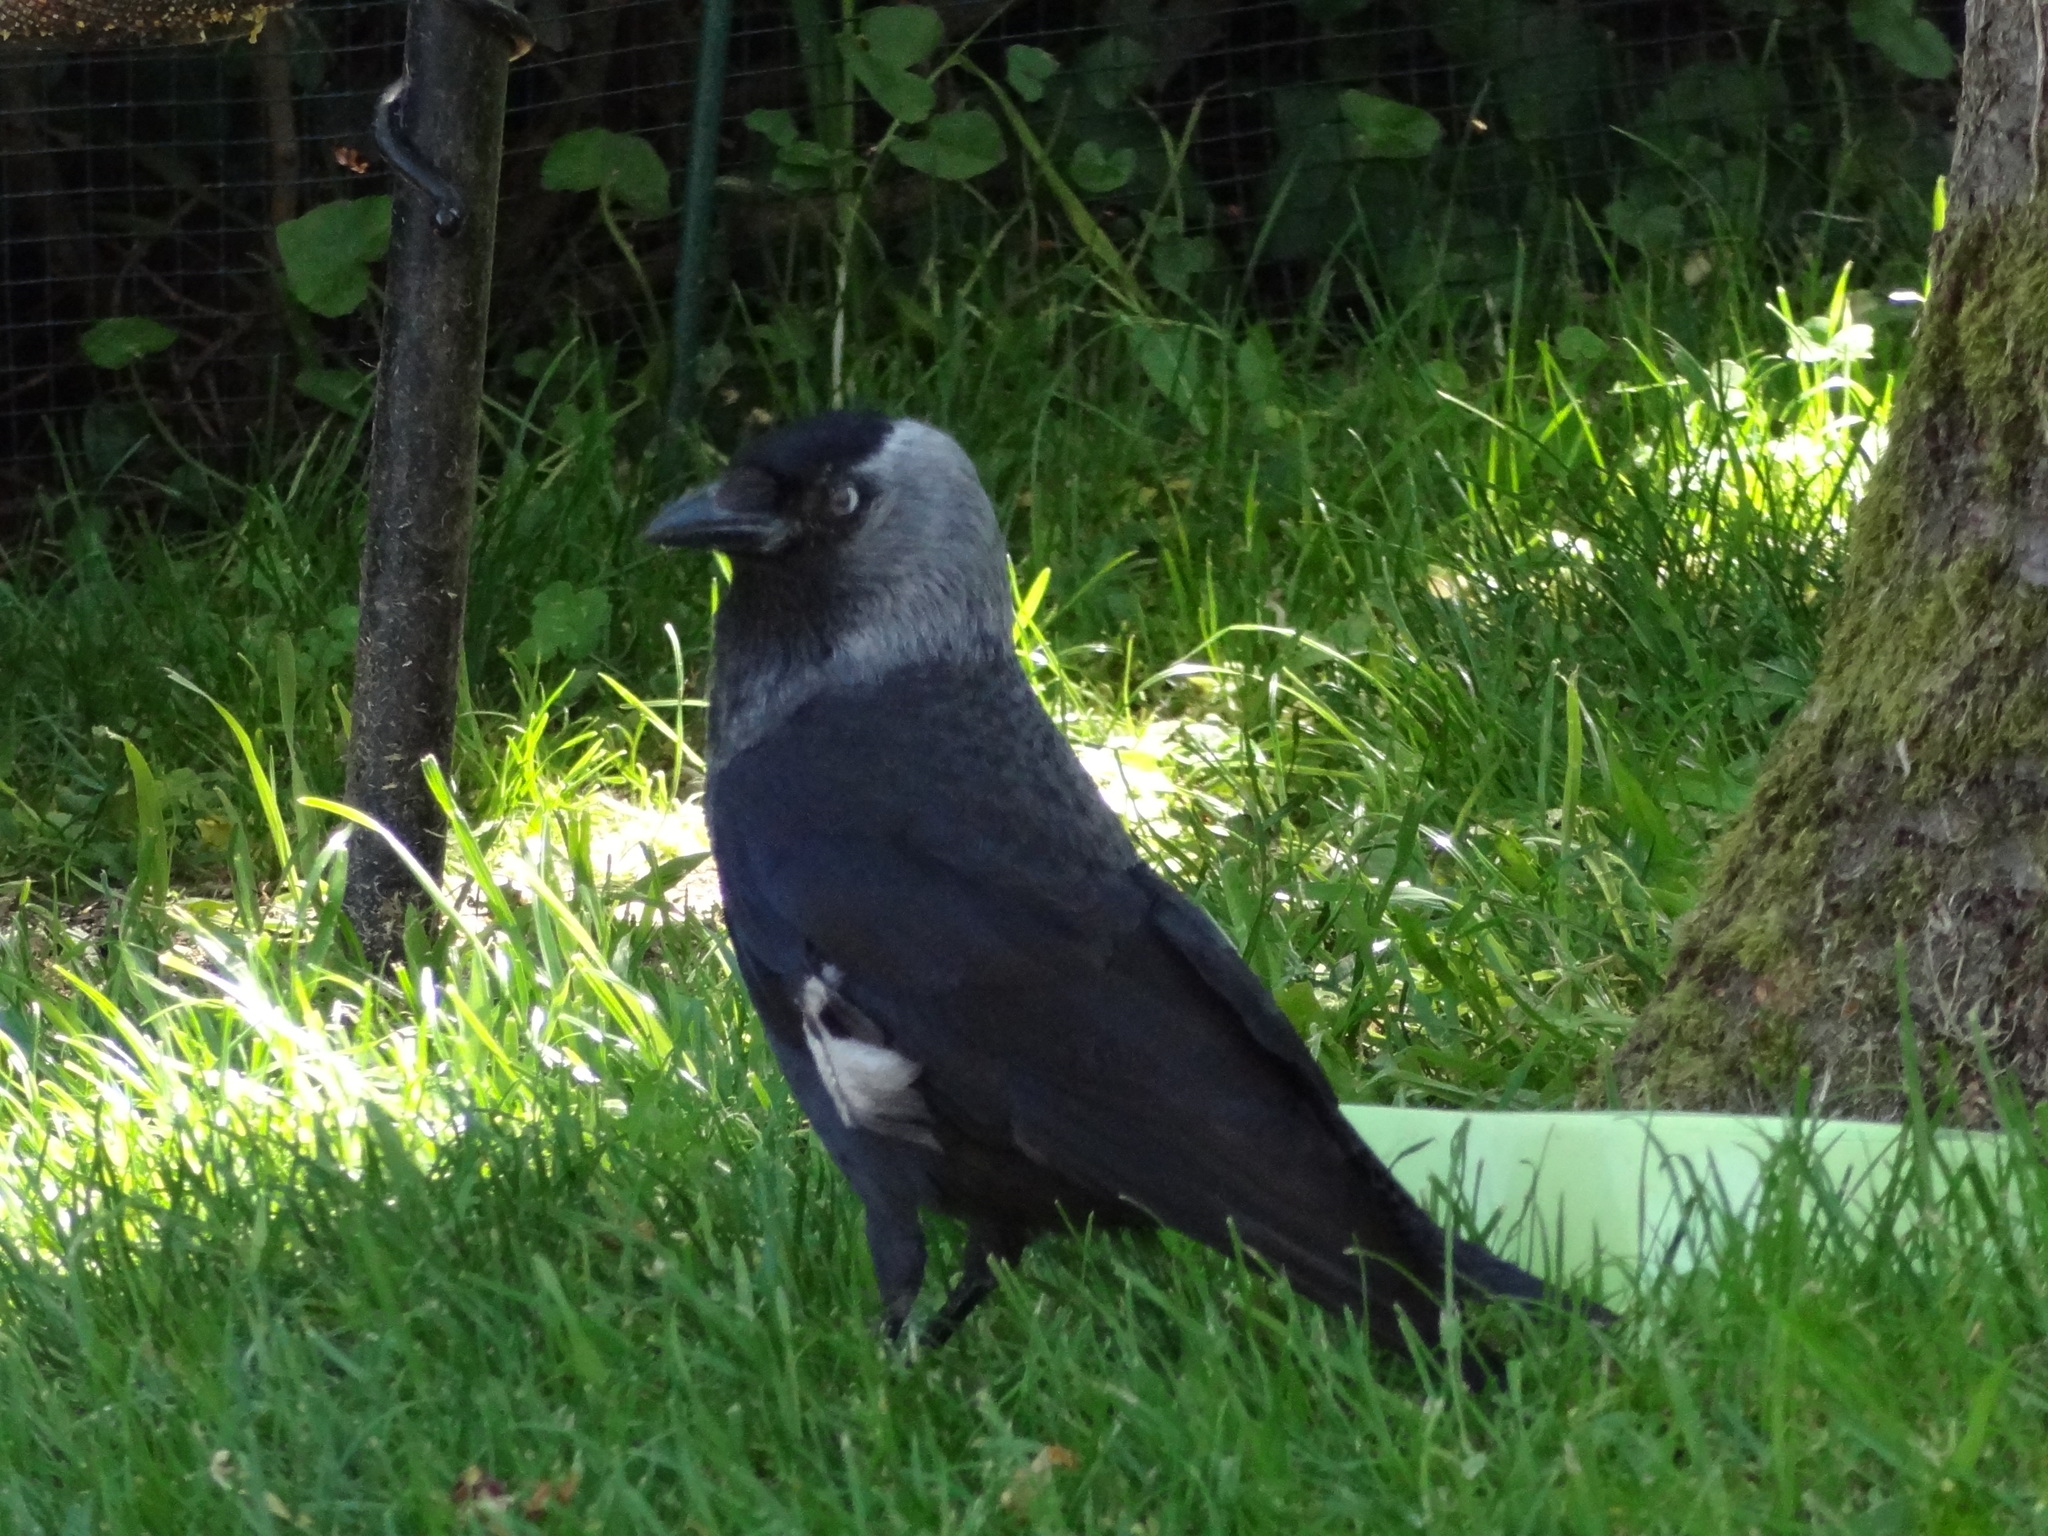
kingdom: Animalia
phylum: Chordata
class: Aves
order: Passeriformes
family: Corvidae
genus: Coloeus
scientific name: Coloeus monedula
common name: Western jackdaw
